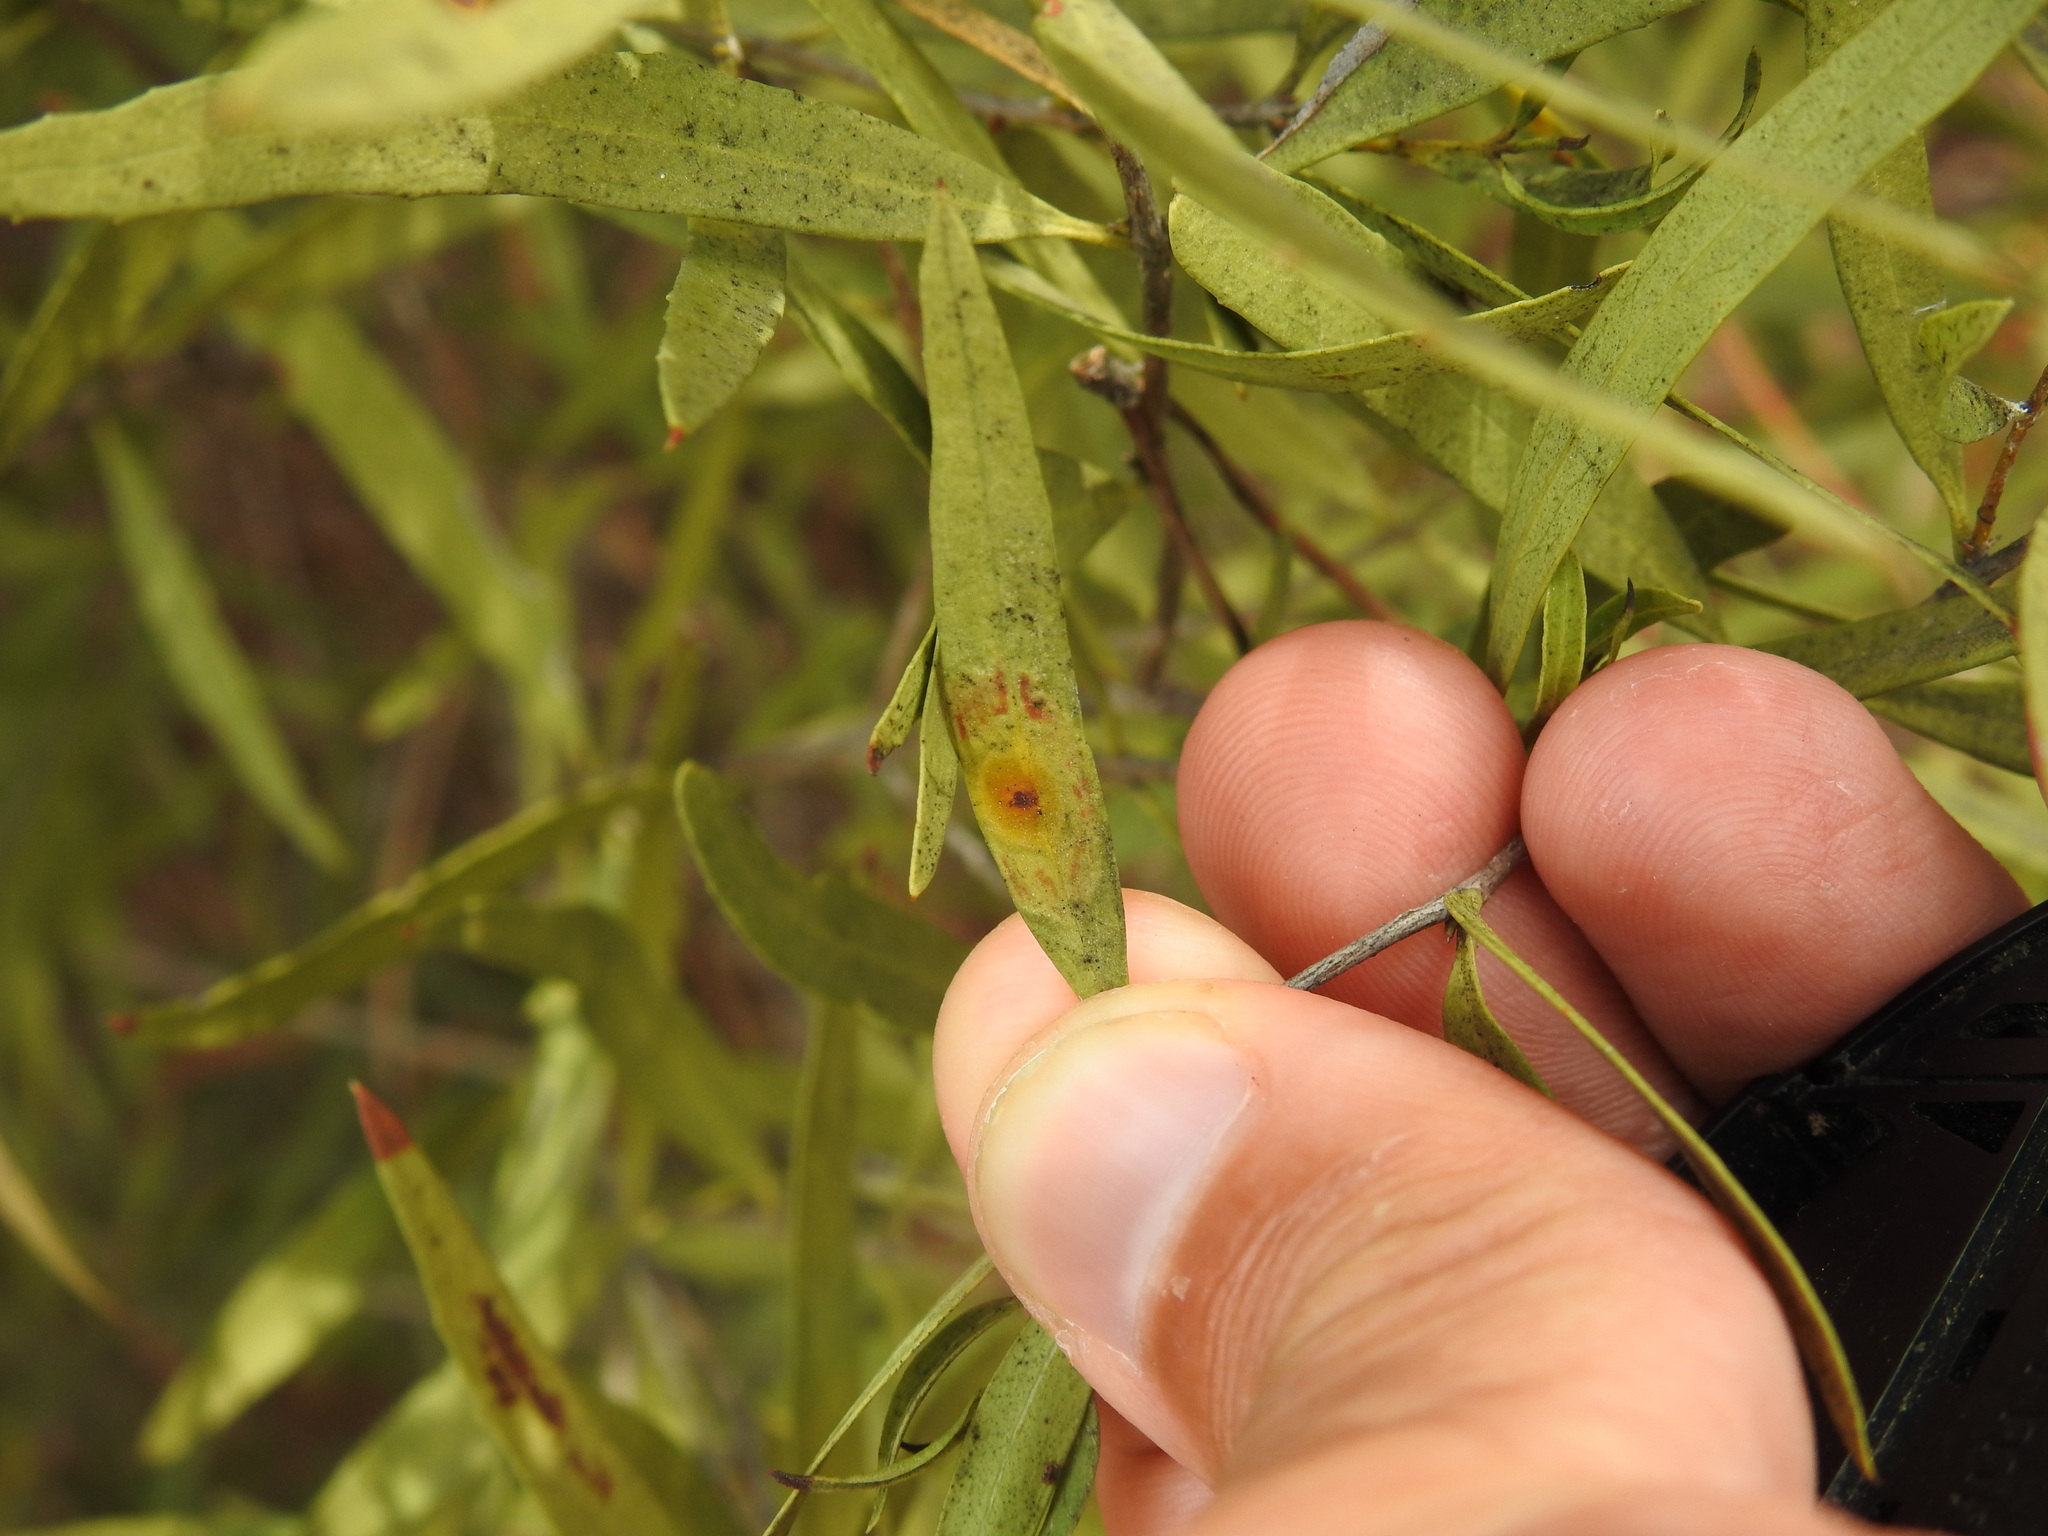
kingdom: Animalia
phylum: Arthropoda
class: Insecta
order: Diptera
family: Cecidomyiidae
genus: Braueriella
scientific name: Braueriella phillyreae
